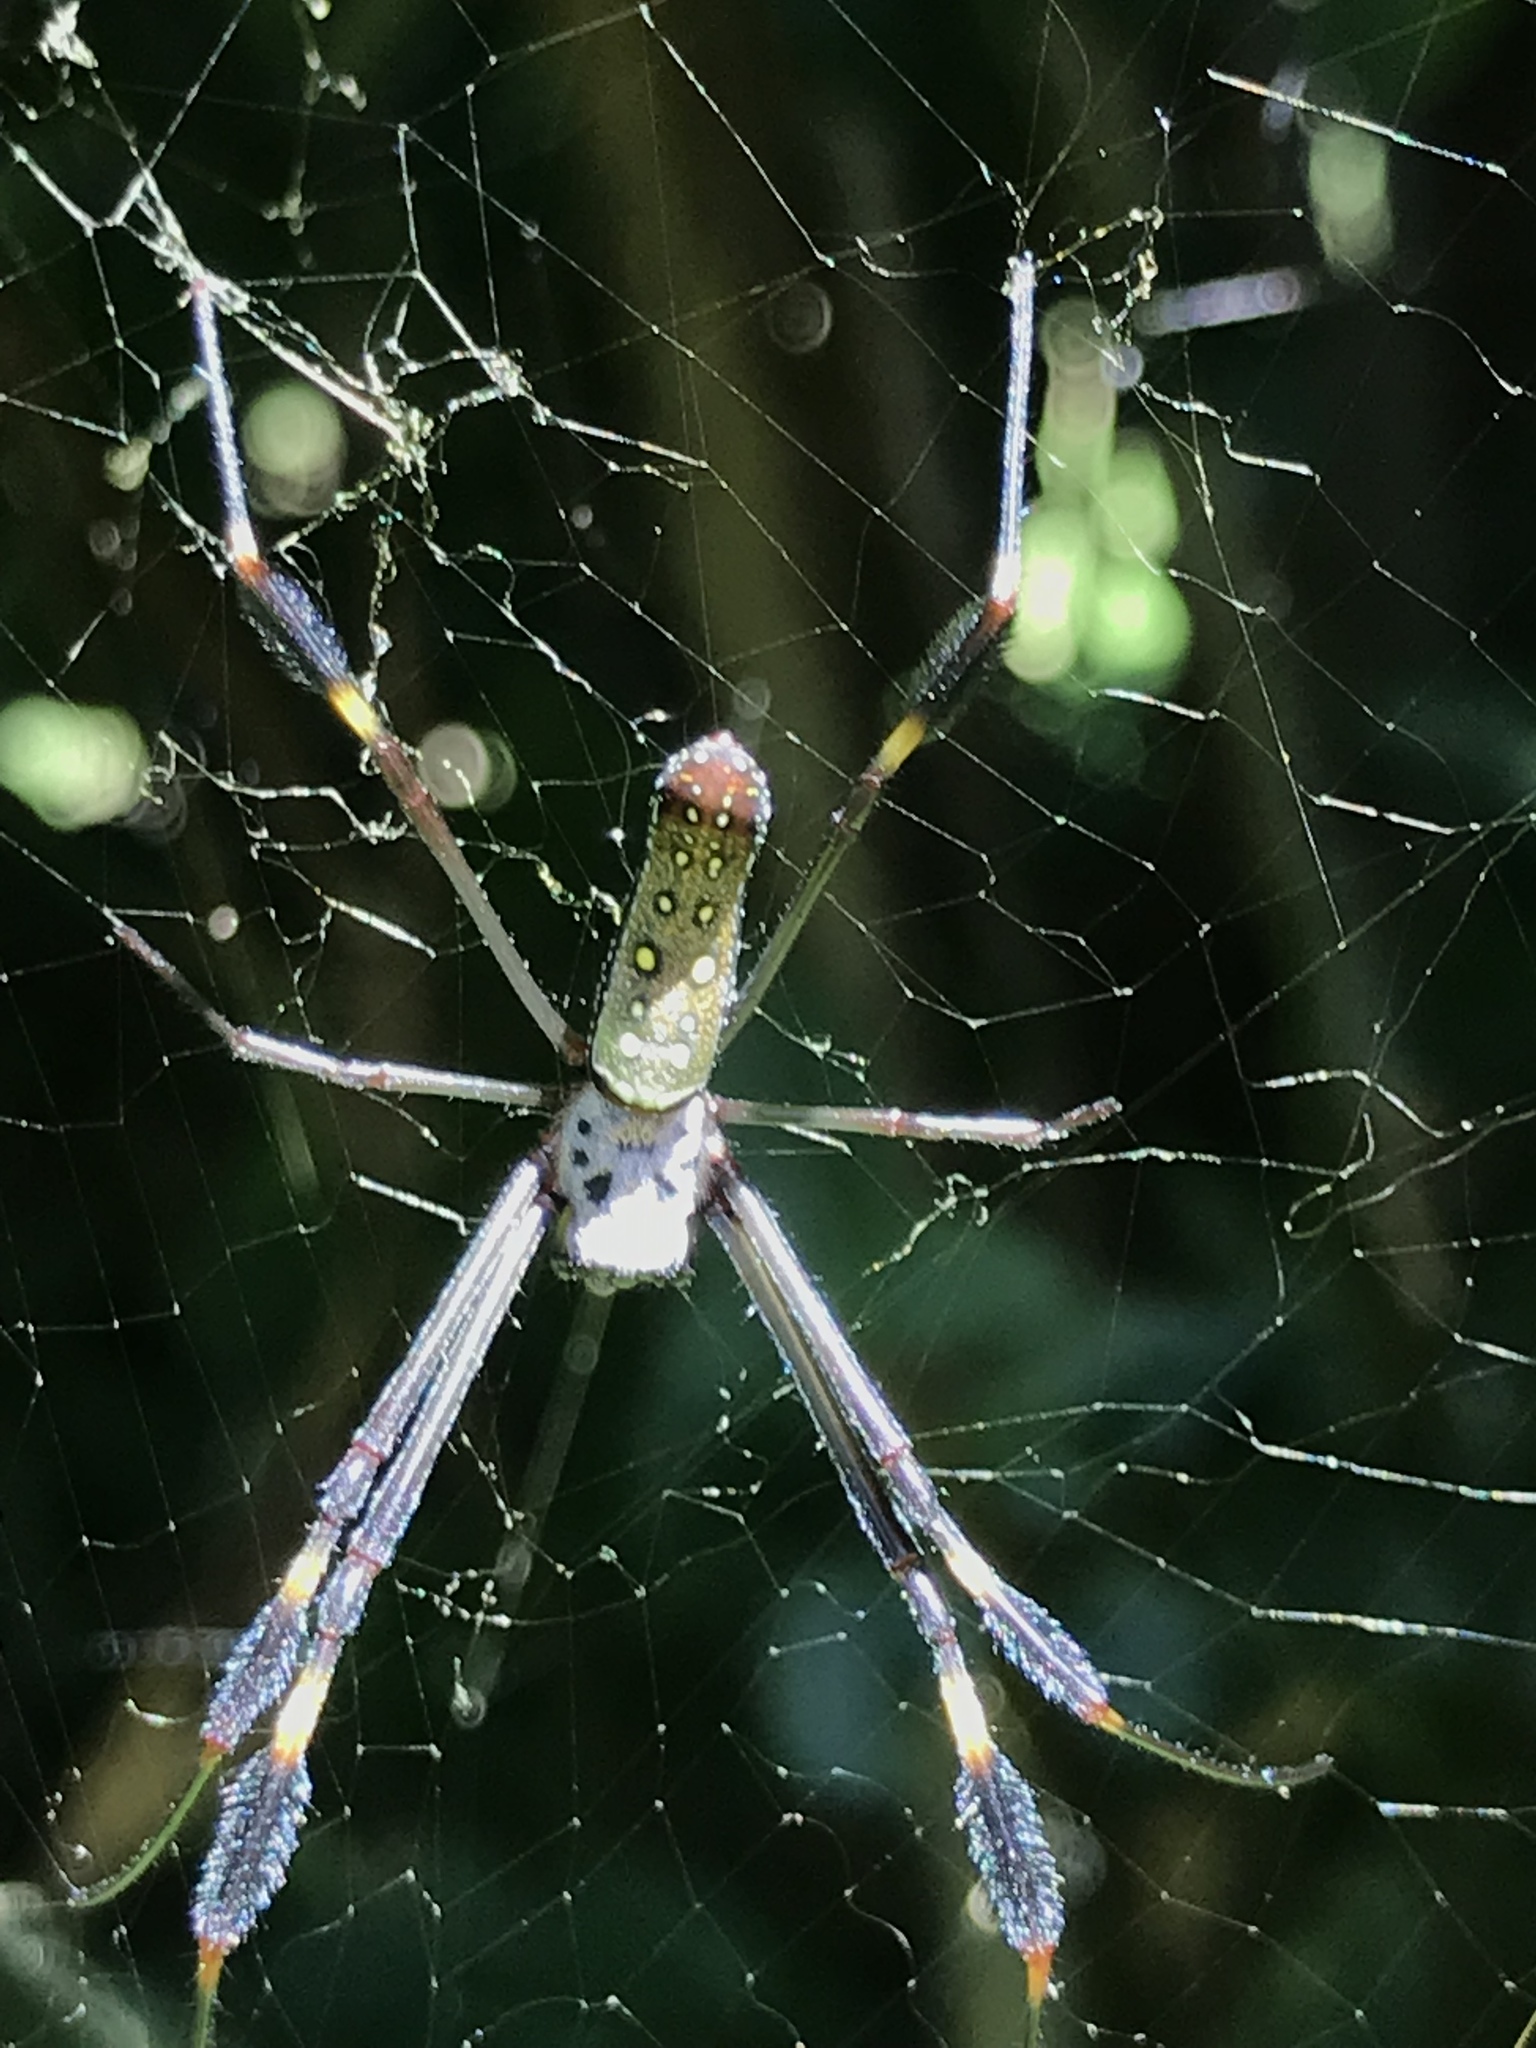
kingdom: Animalia
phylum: Arthropoda
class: Arachnida
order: Araneae
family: Araneidae
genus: Trichonephila
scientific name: Trichonephila clavipes
